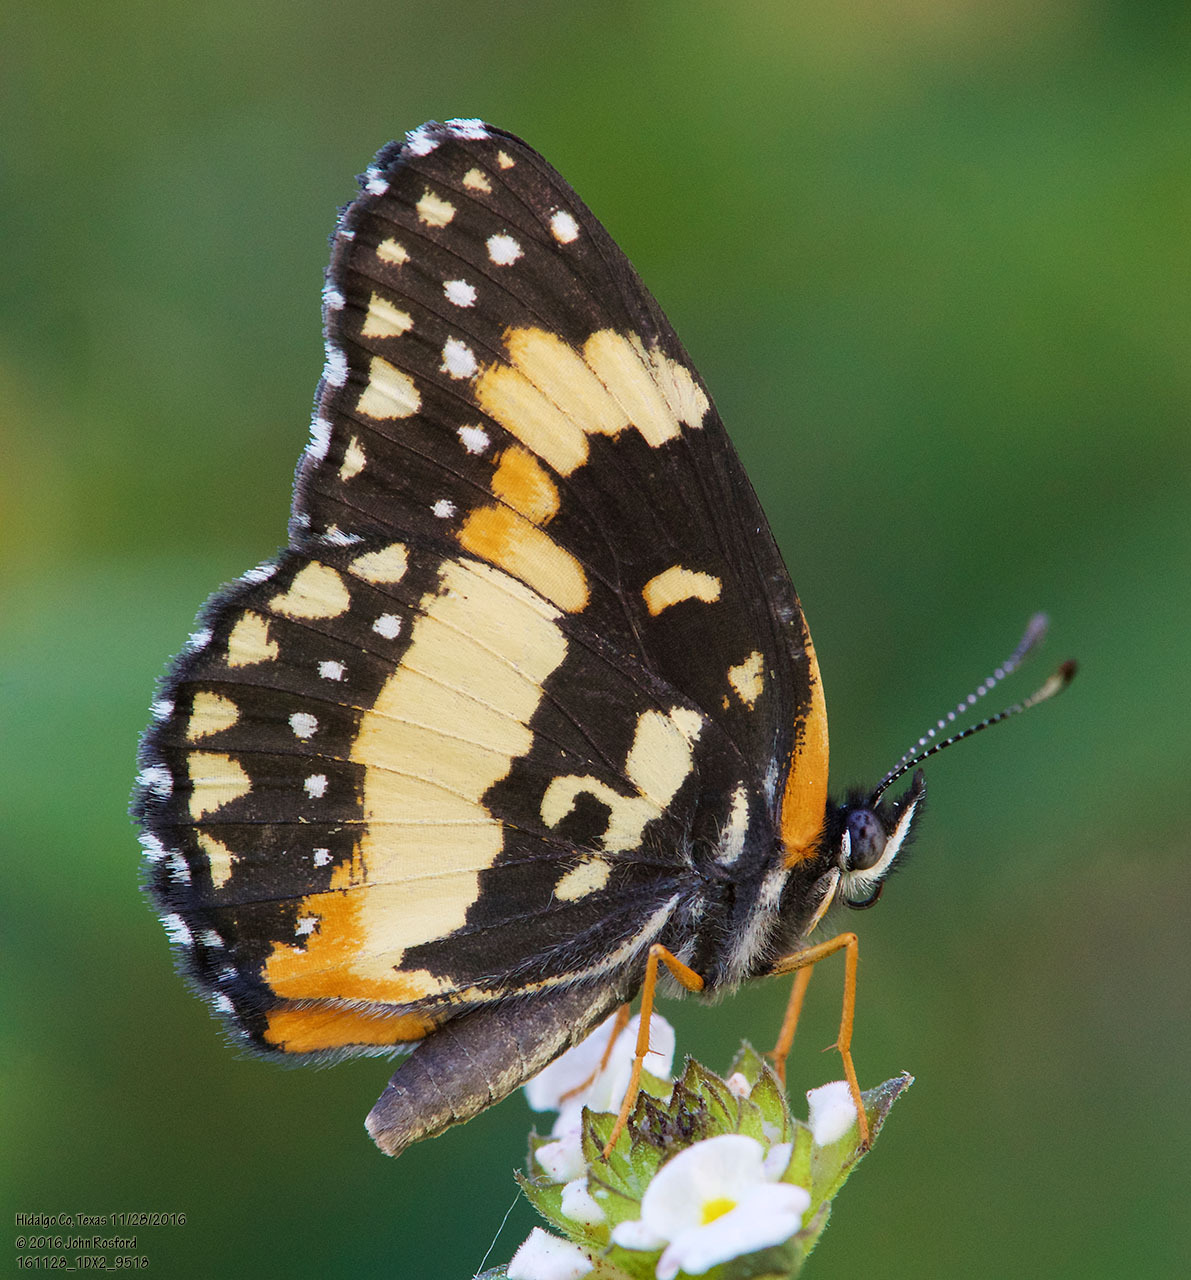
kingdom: Animalia
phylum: Arthropoda
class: Insecta
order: Lepidoptera
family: Nymphalidae
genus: Chlosyne
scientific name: Chlosyne lacinia
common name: Bordered patch
